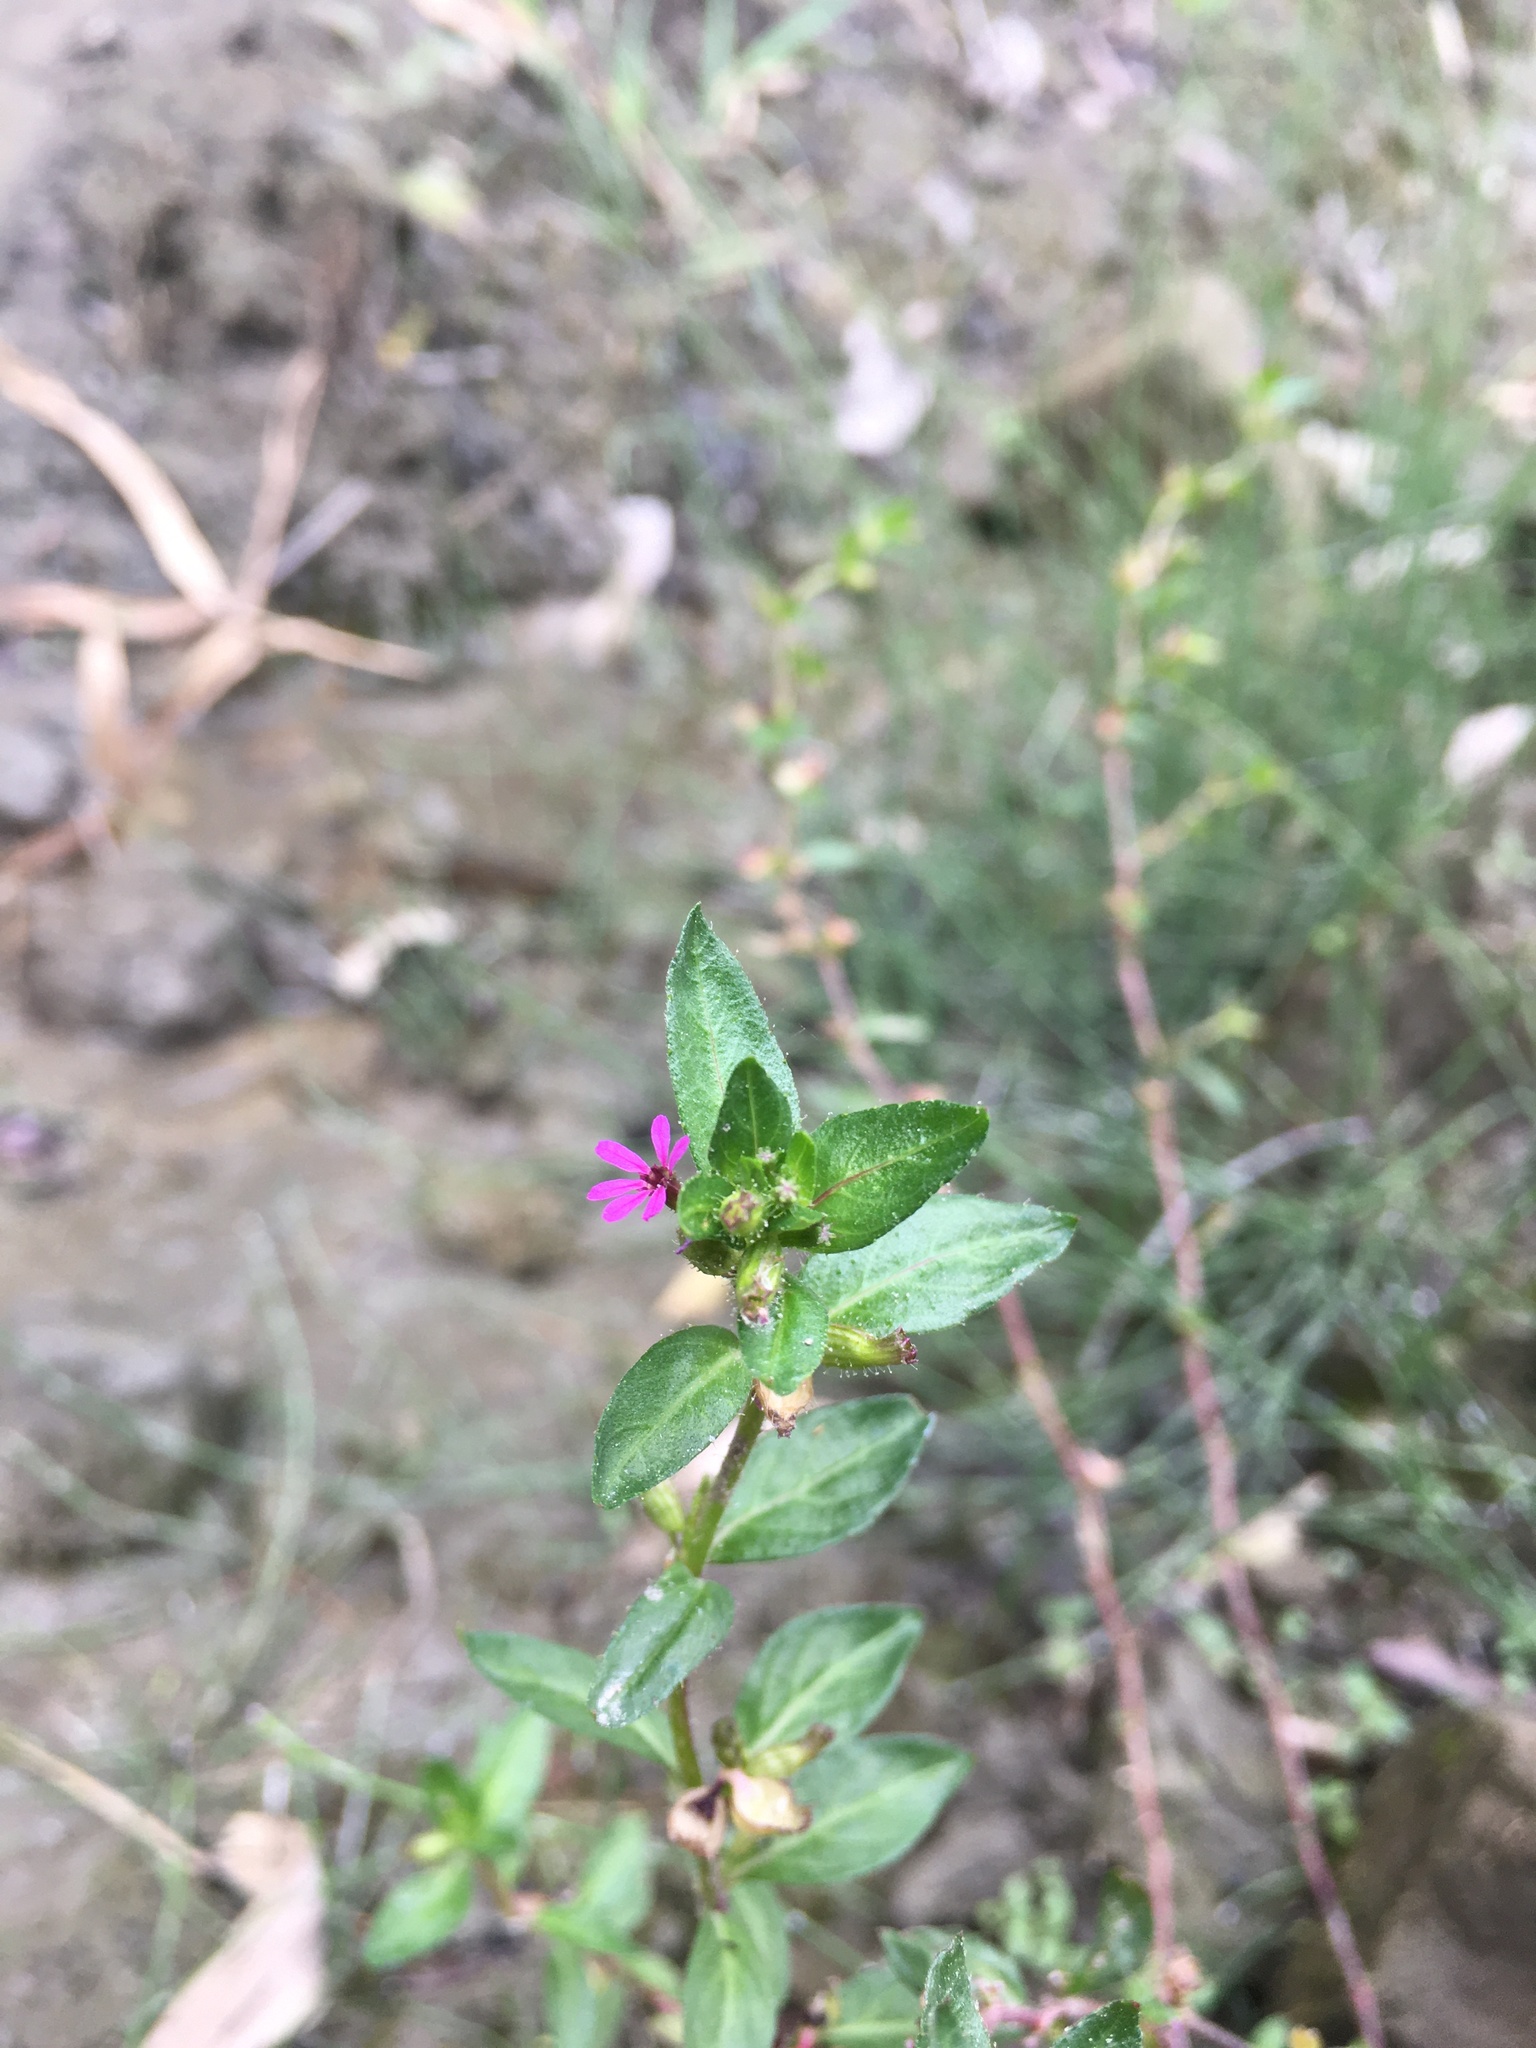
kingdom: Plantae
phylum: Tracheophyta
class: Magnoliopsida
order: Myrtales
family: Lythraceae
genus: Cuphea
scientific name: Cuphea carthagenensis
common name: Colombian waxweed
